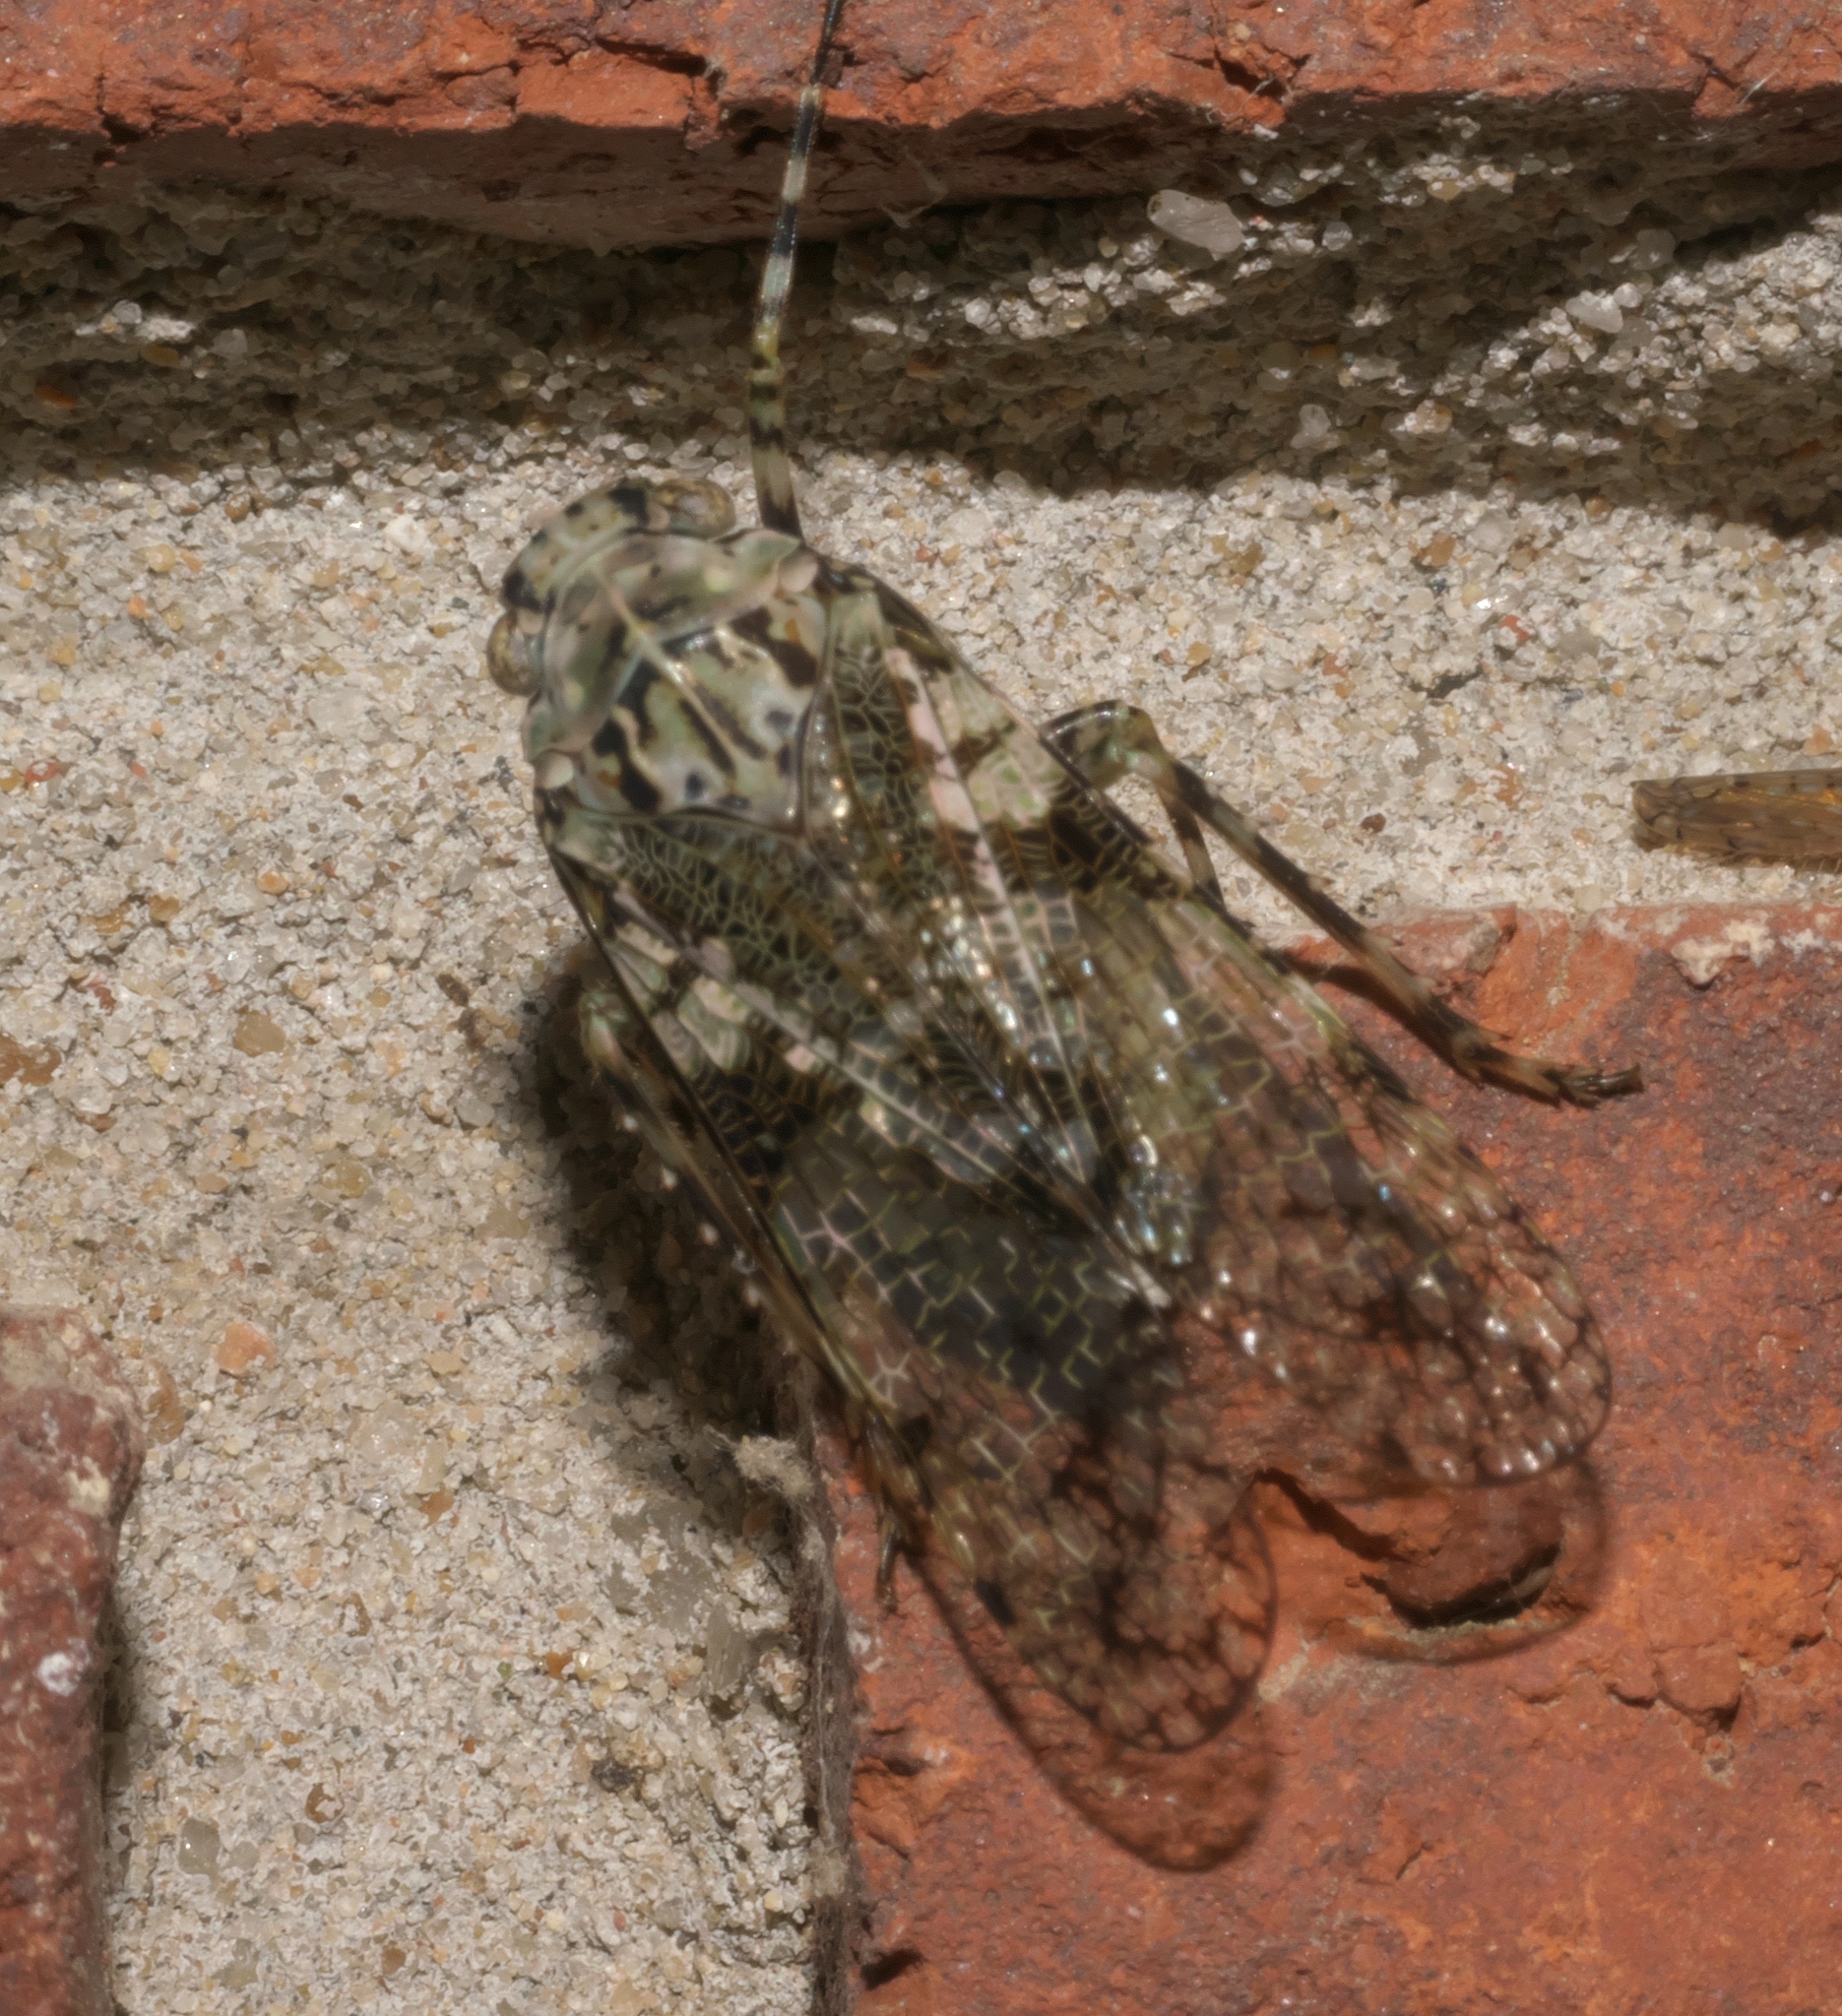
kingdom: Animalia
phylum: Arthropoda
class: Insecta
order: Hemiptera
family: Fulgoridae
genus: Calyptoproctus
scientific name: Calyptoproctus marmoratus
